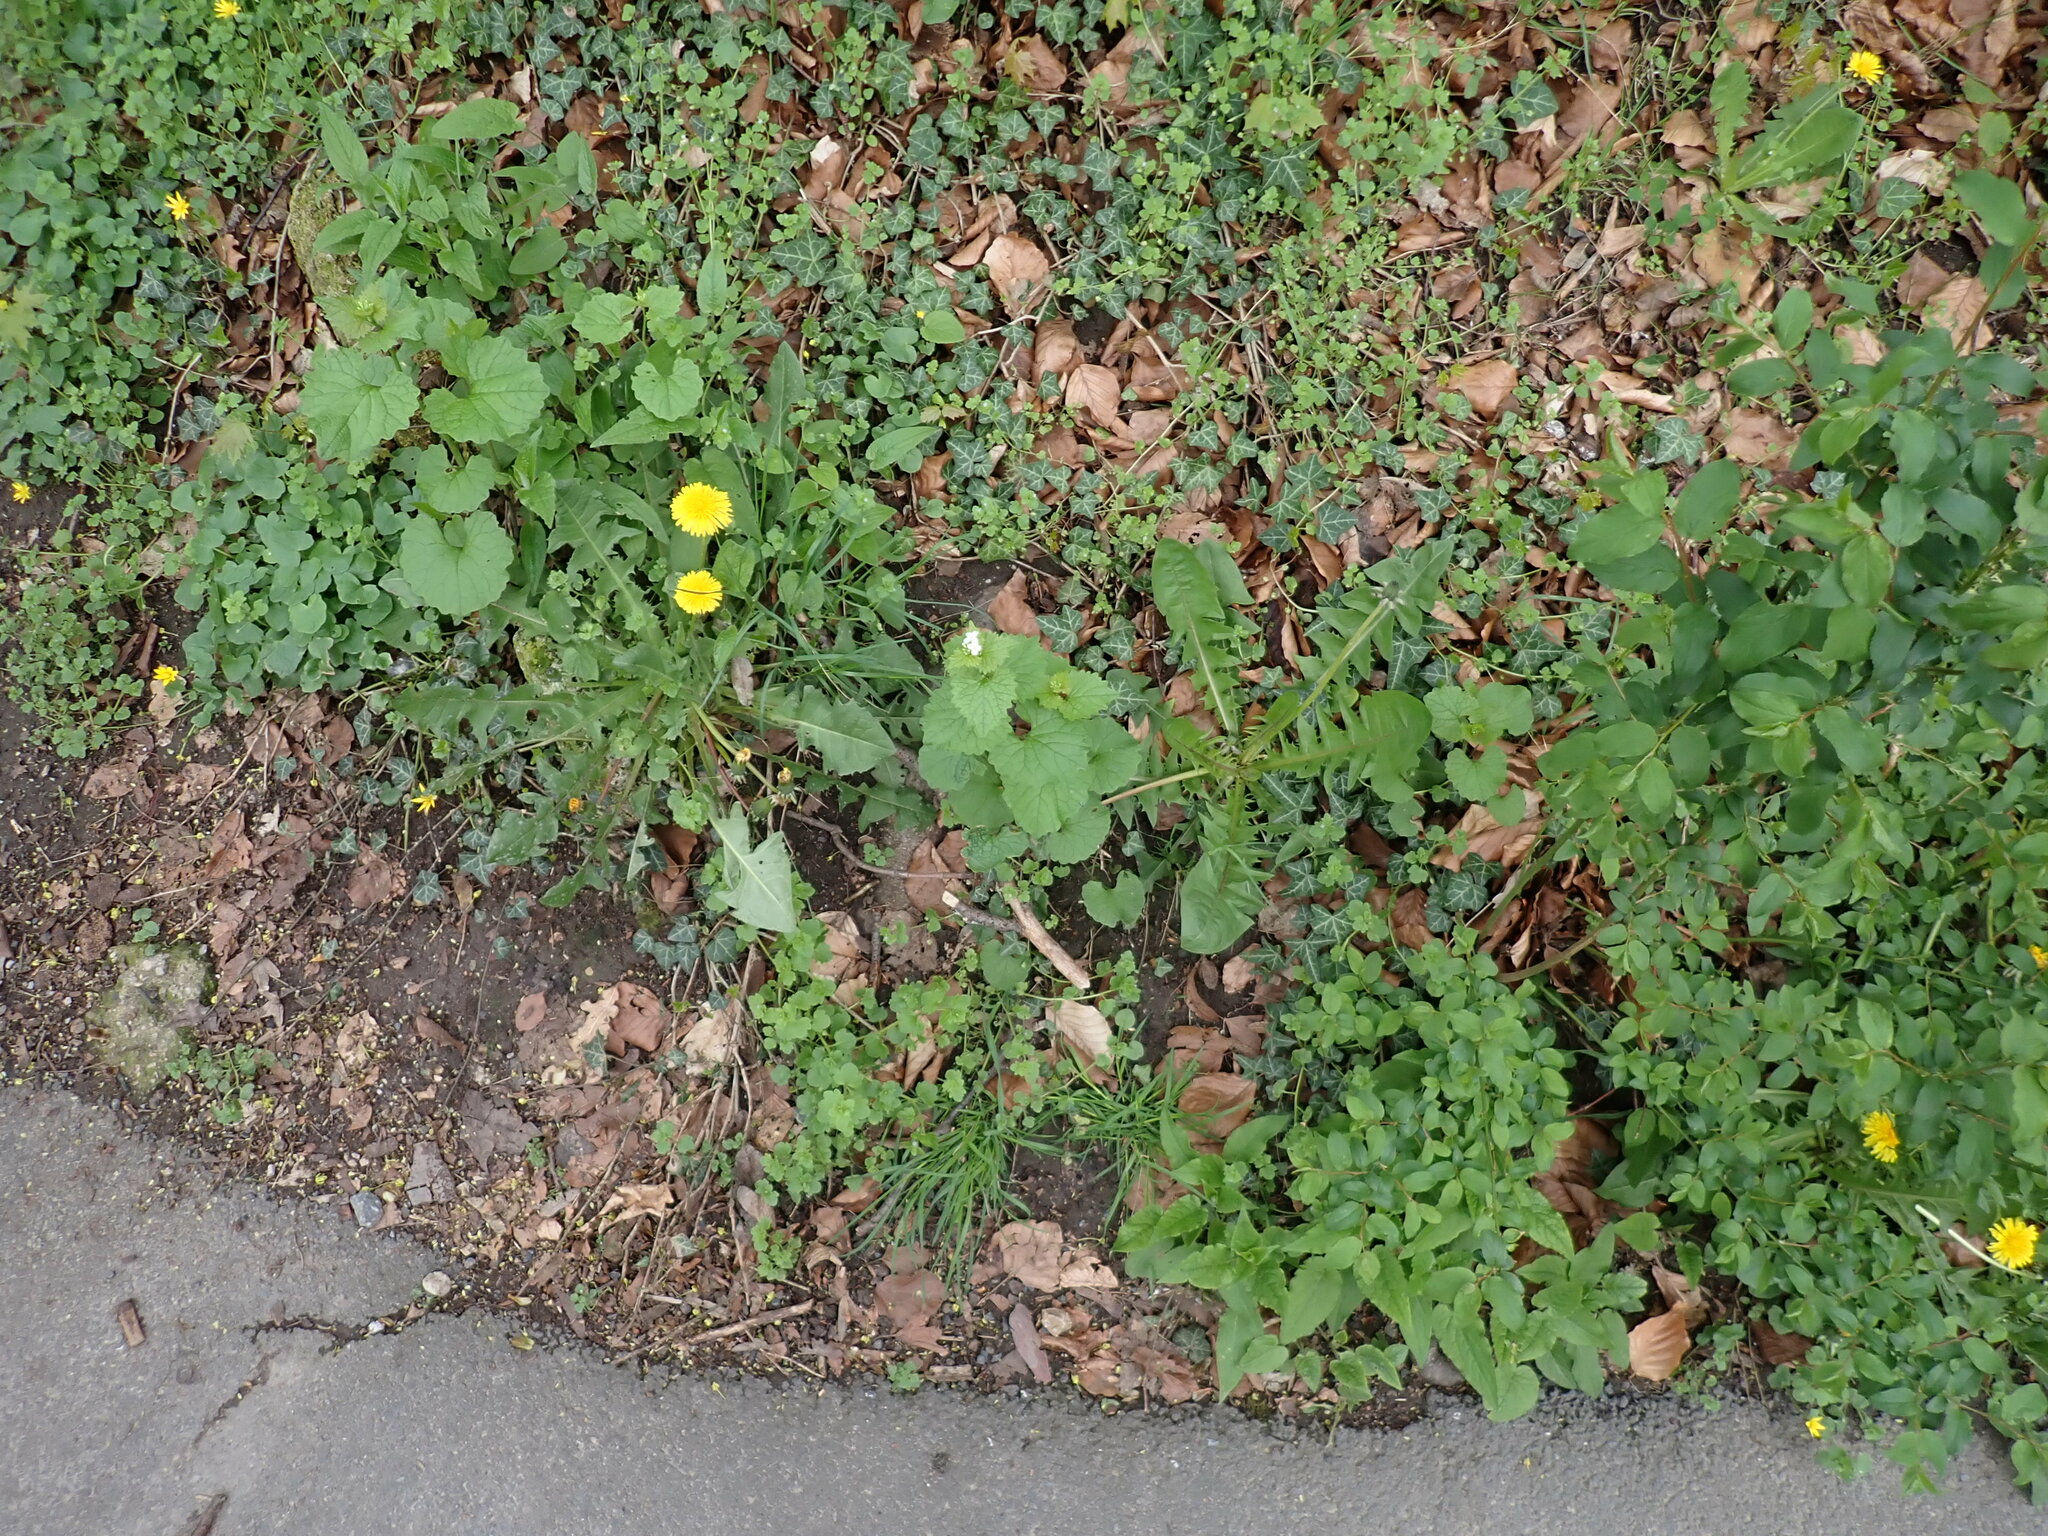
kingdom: Plantae
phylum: Tracheophyta
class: Magnoliopsida
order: Brassicales
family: Brassicaceae
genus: Alliaria
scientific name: Alliaria petiolata
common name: Garlic mustard
